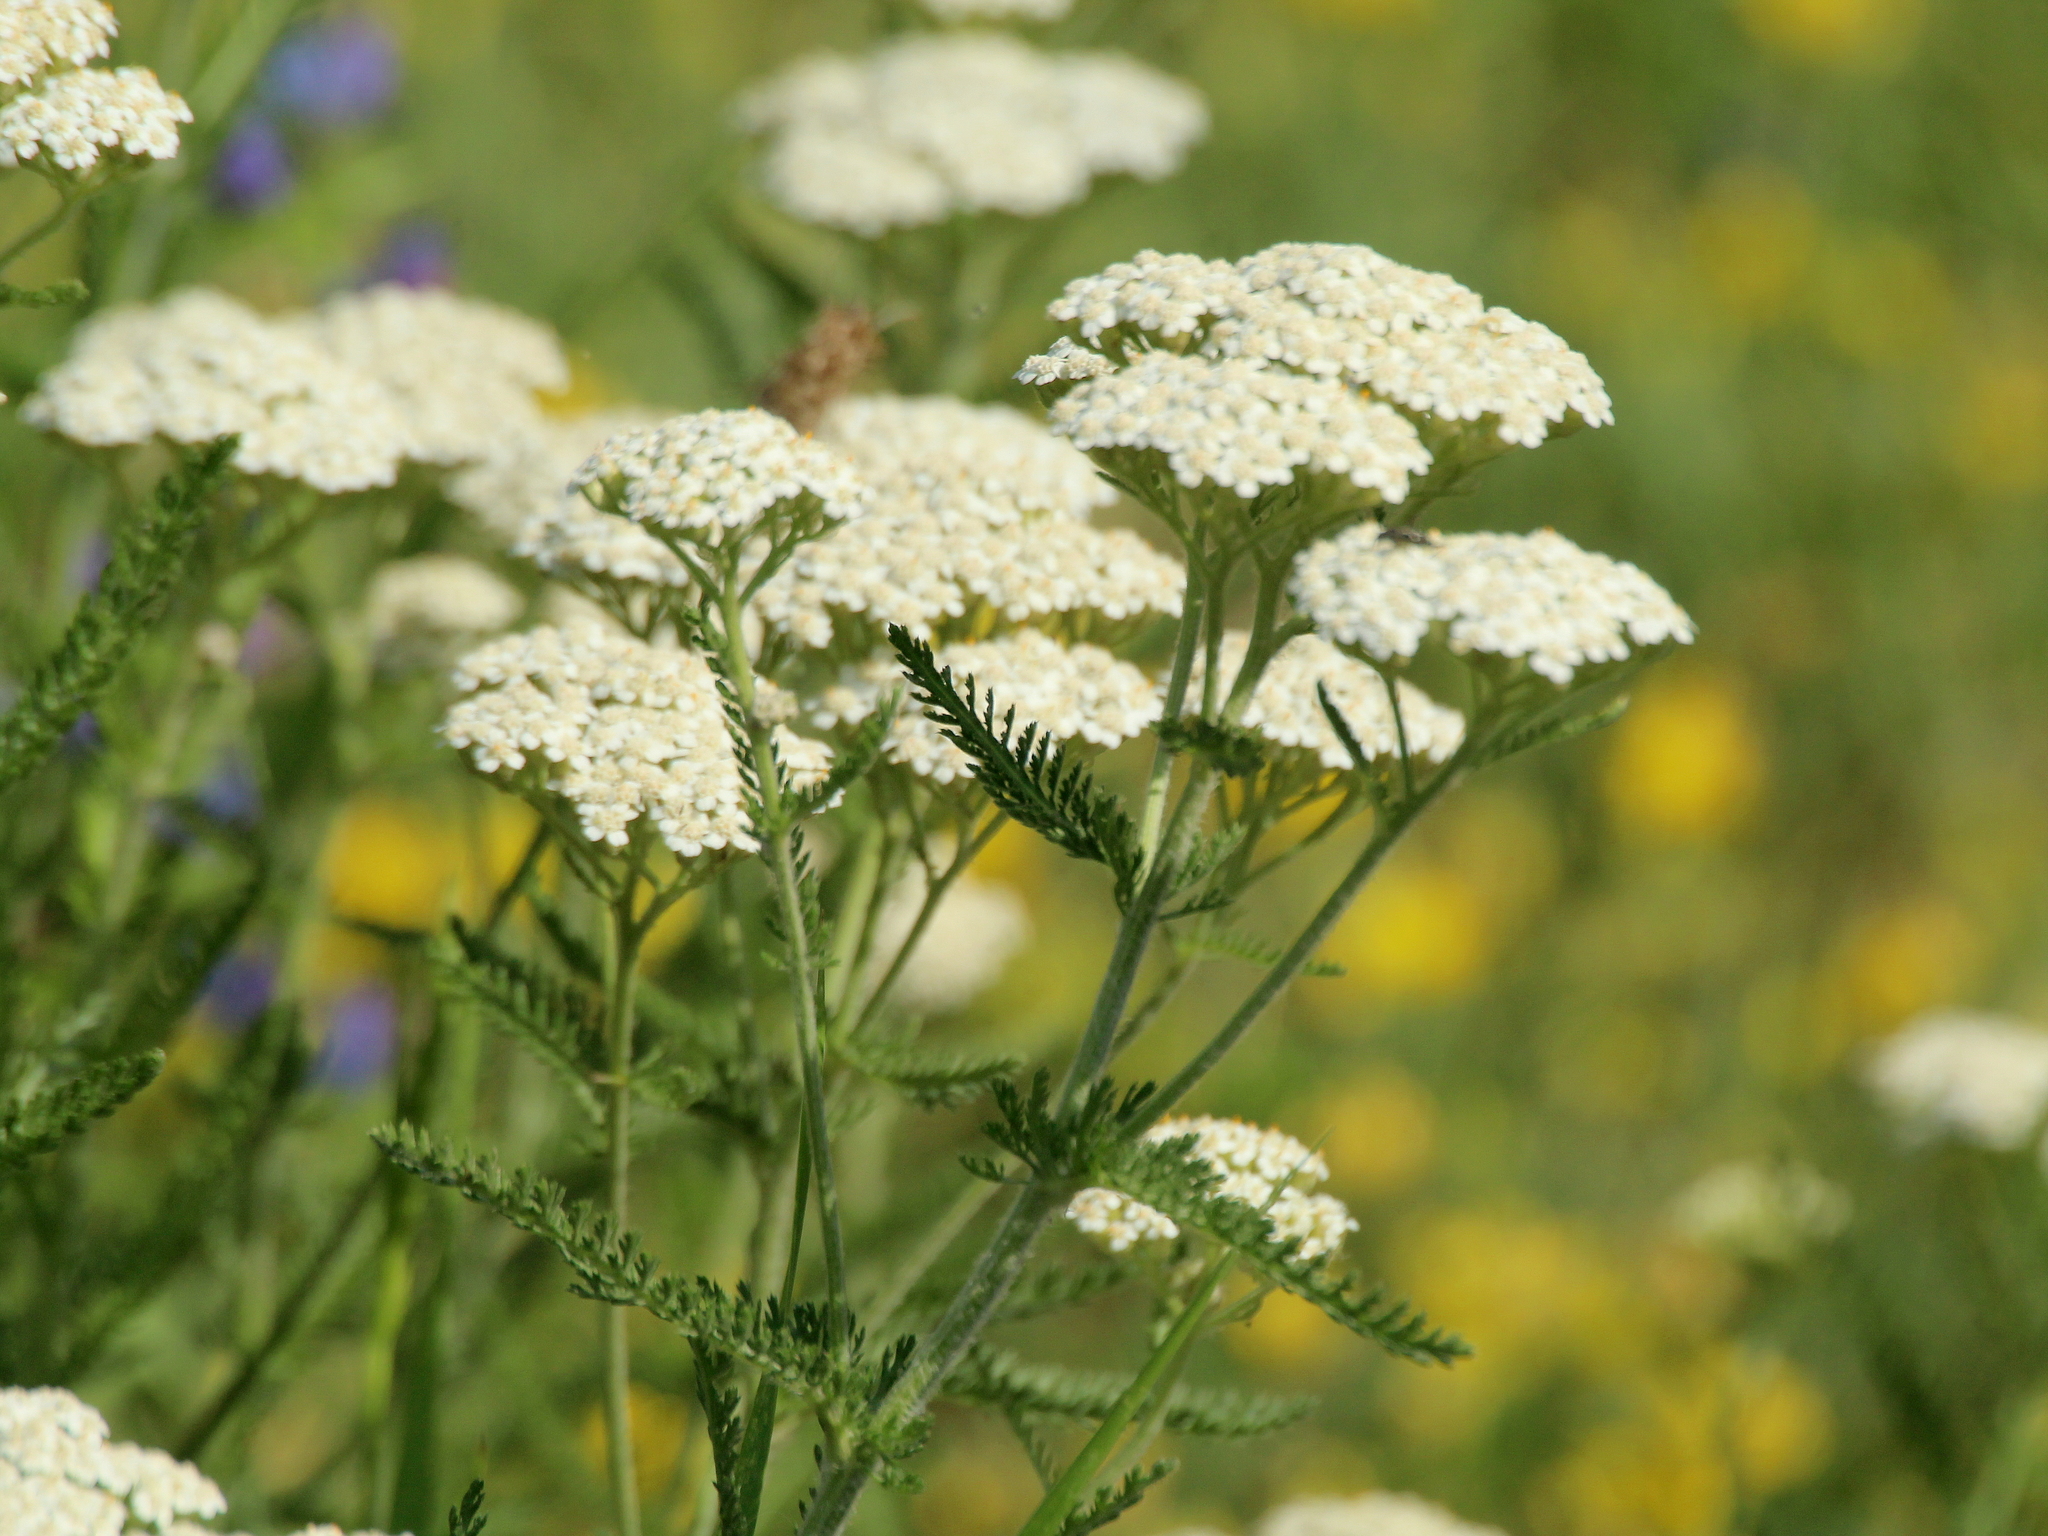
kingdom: Plantae
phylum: Tracheophyta
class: Magnoliopsida
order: Asterales
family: Asteraceae
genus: Achillea
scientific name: Achillea millefolium
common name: Yarrow
